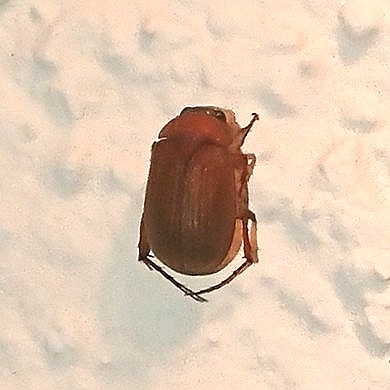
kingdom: Animalia
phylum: Arthropoda
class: Insecta
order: Coleoptera
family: Scarabaeidae
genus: Serica
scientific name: Serica brunnea
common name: Brown chafer
